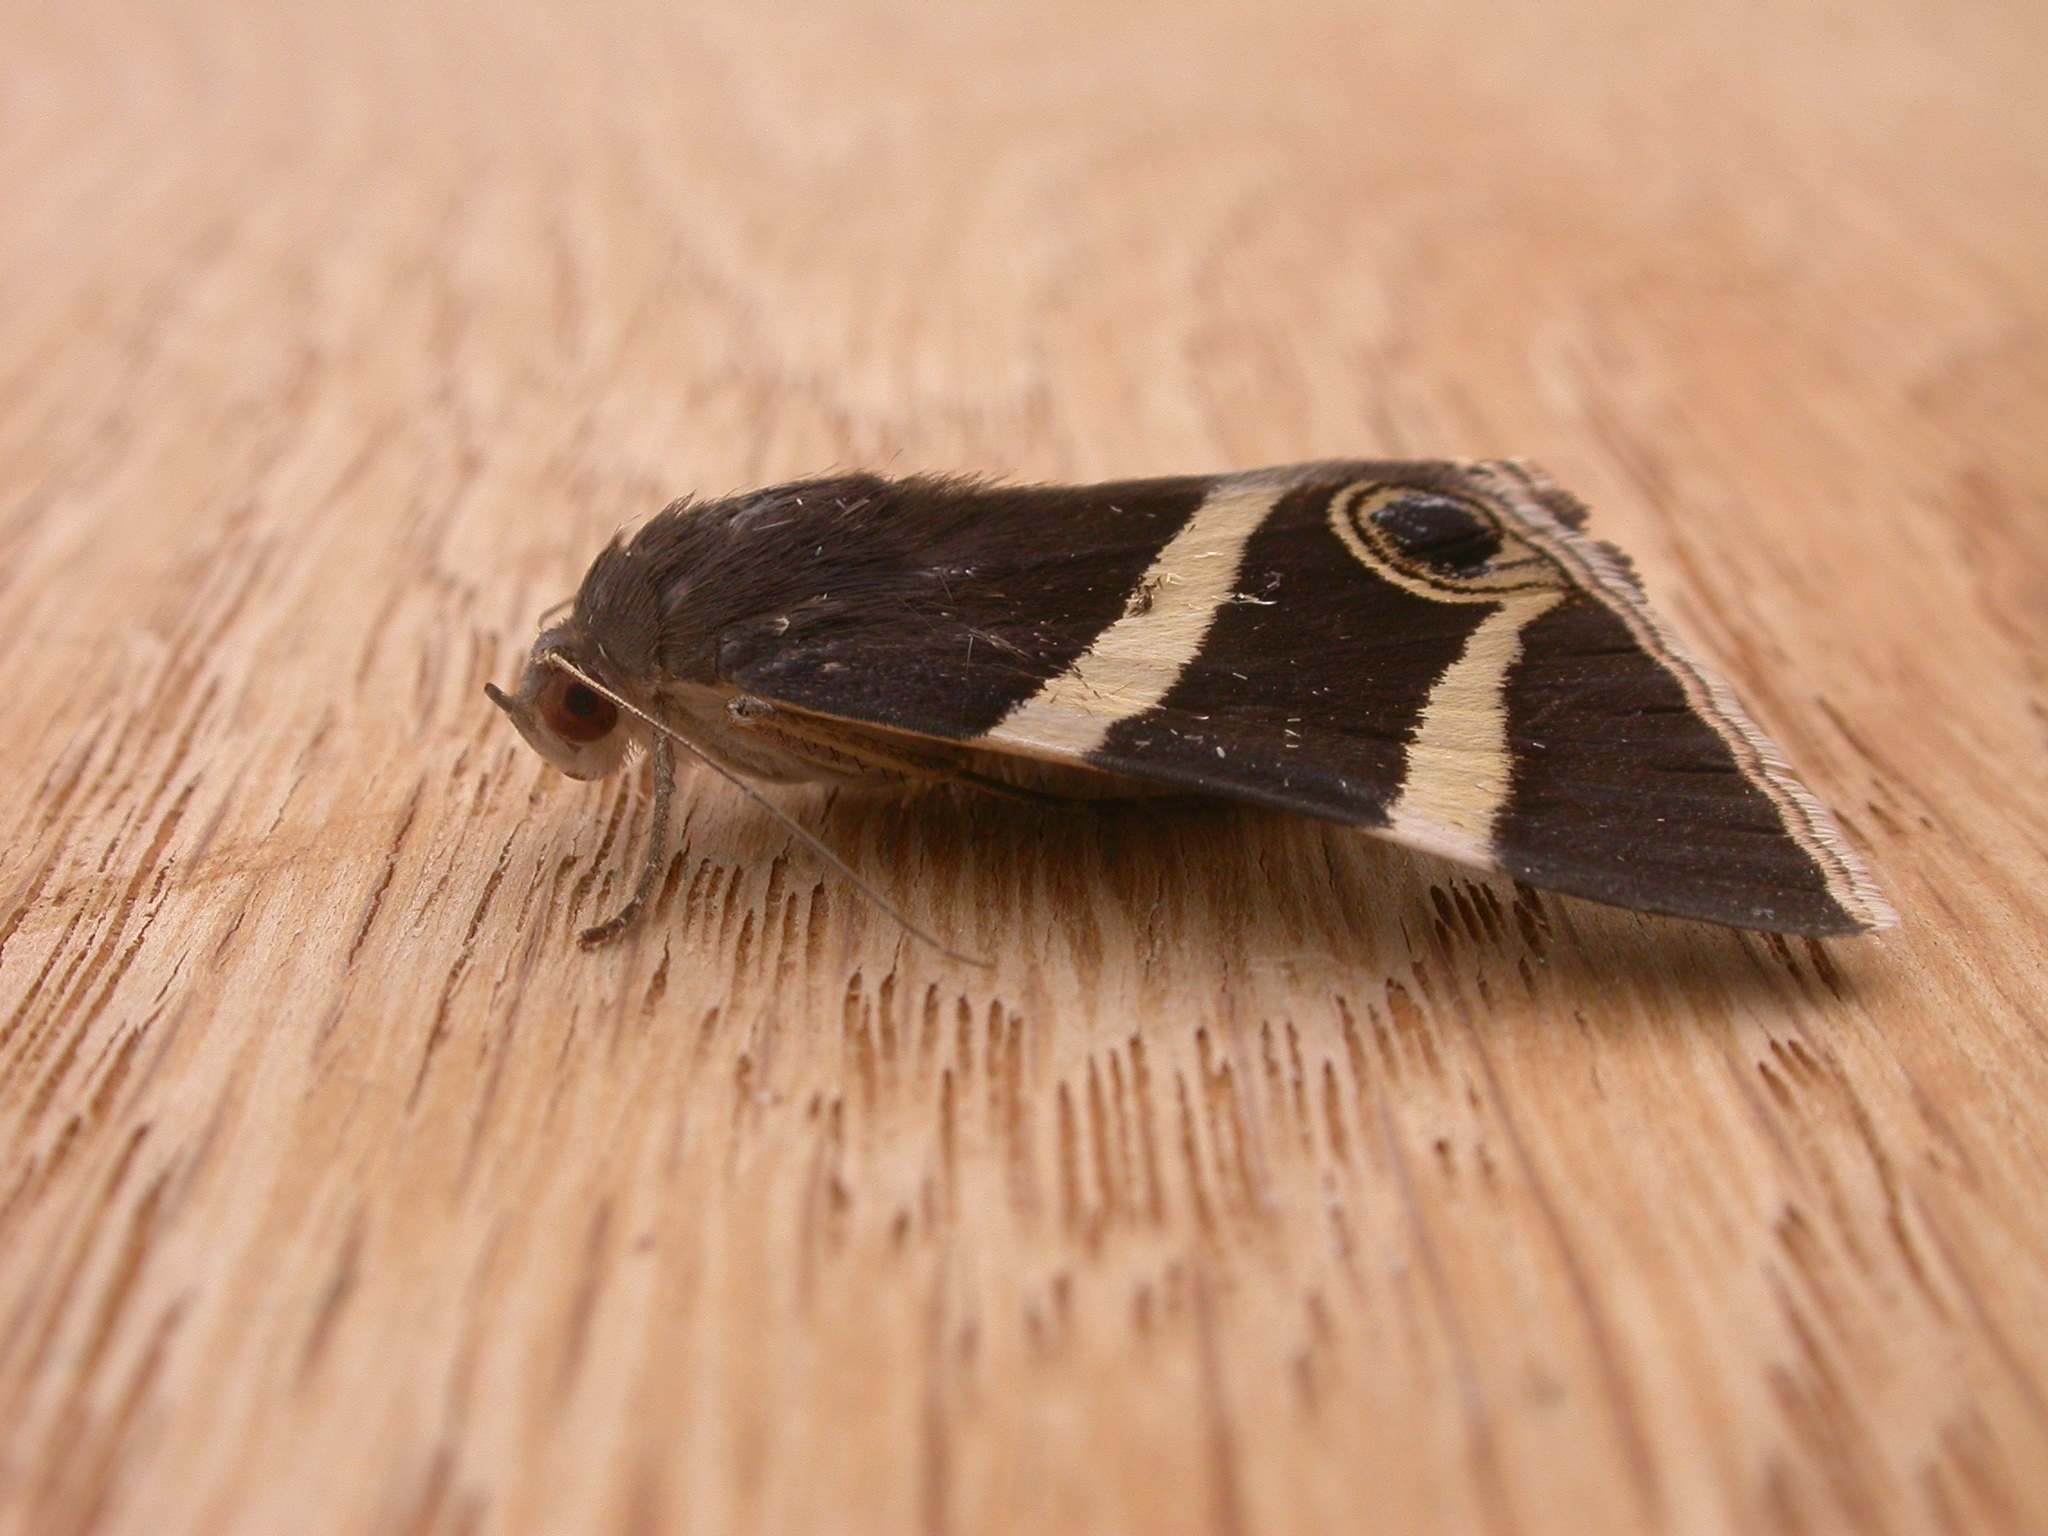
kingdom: Animalia
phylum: Arthropoda
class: Insecta
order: Lepidoptera
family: Erebidae
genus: Grammodes
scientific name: Grammodes ocellata
